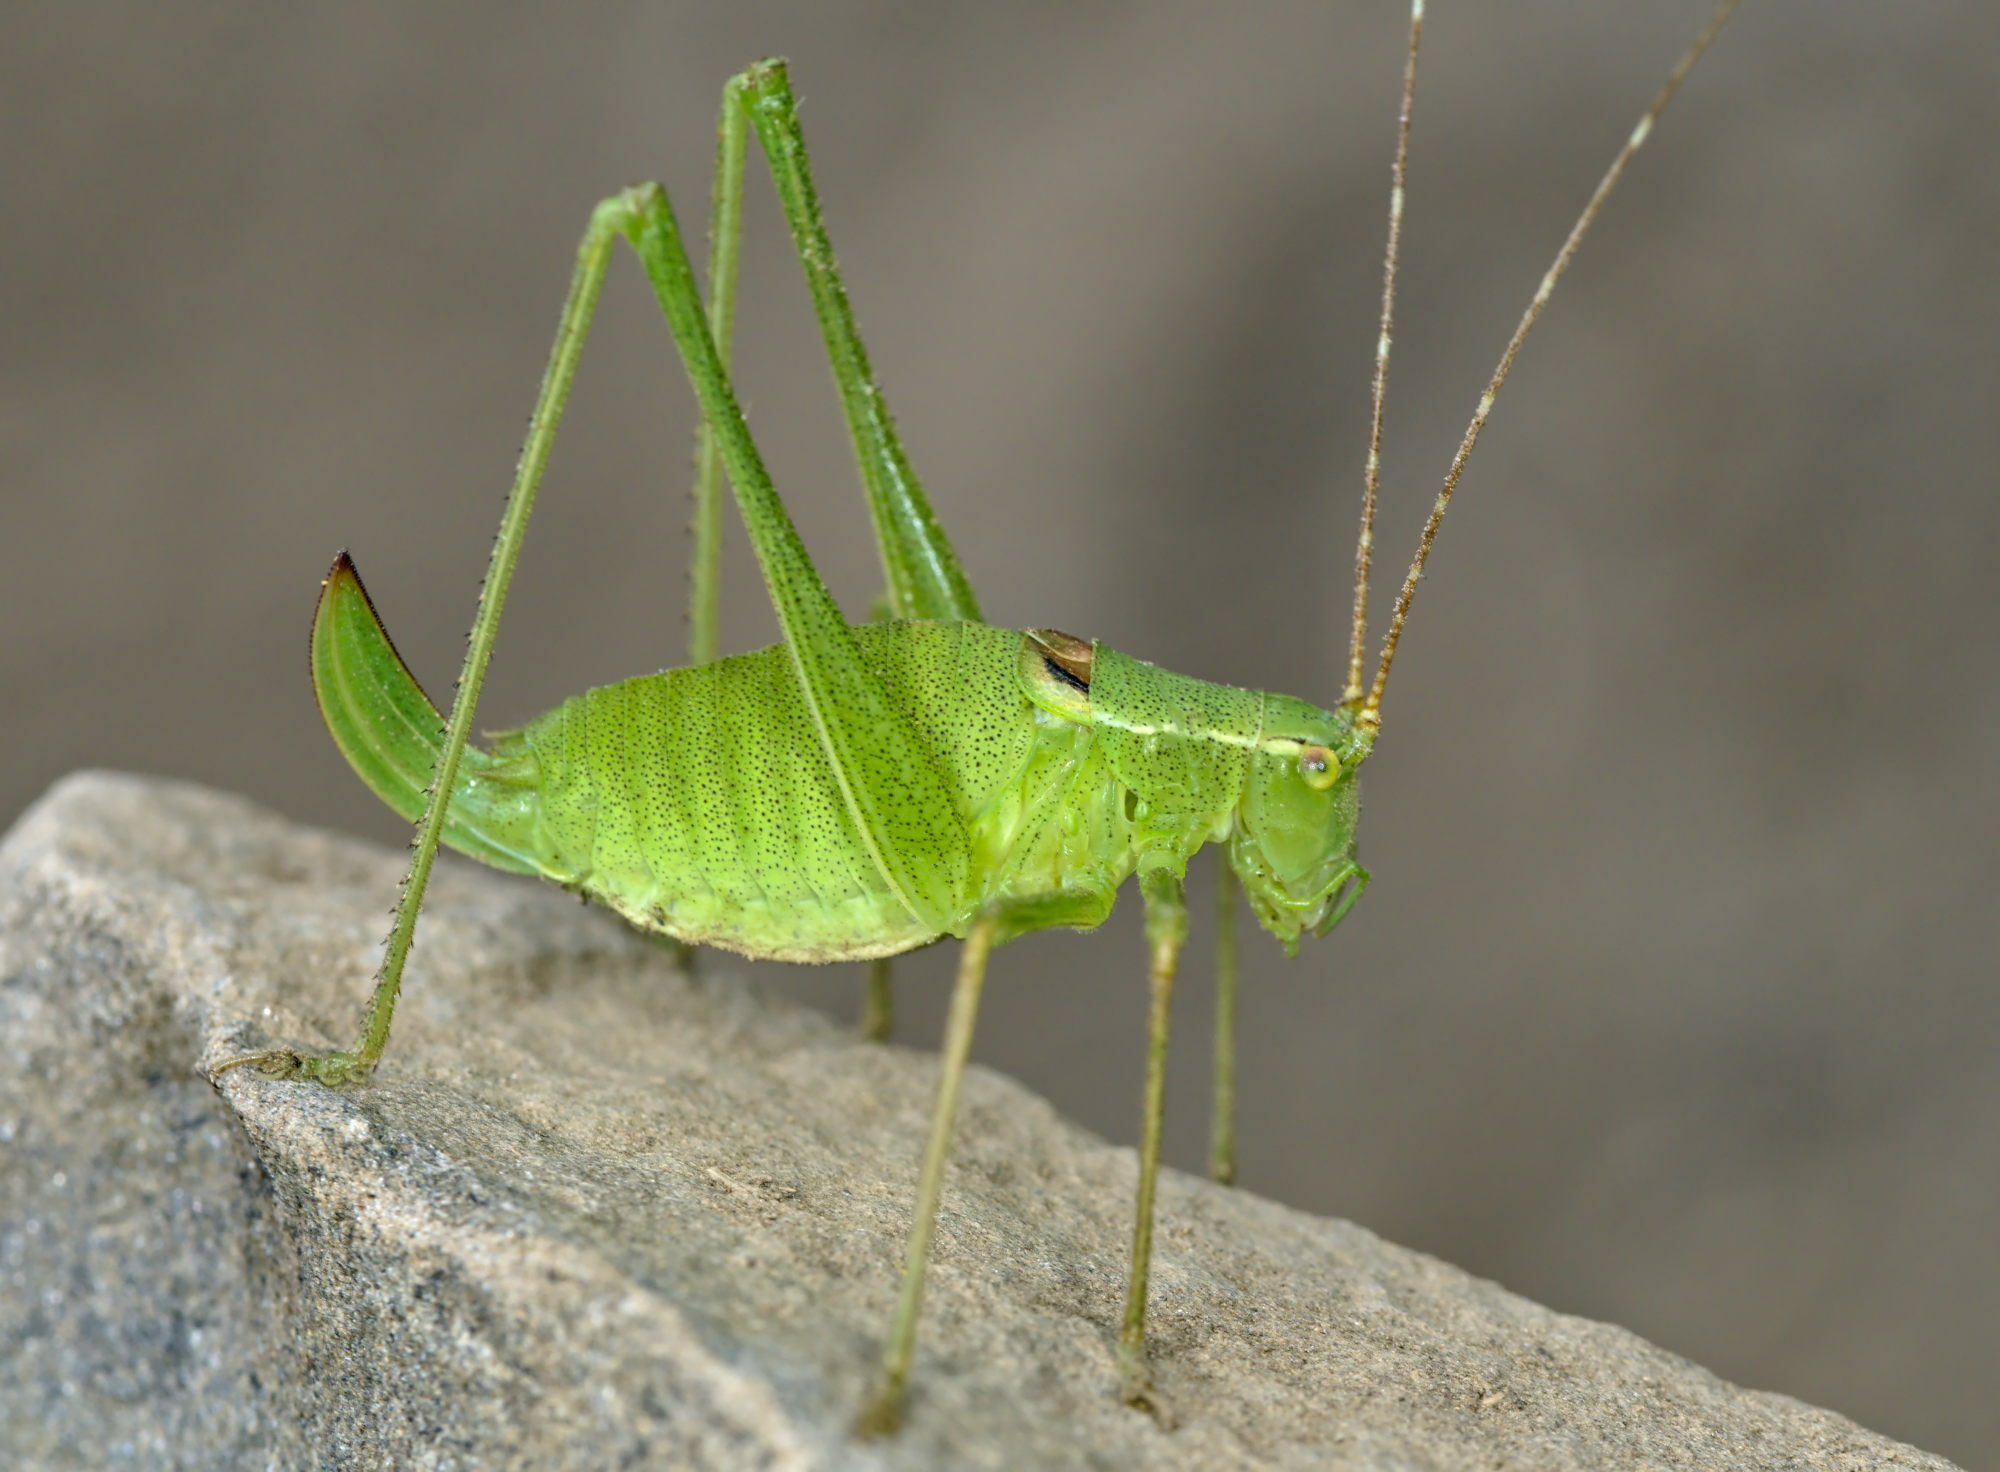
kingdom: Animalia
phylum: Arthropoda
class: Insecta
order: Orthoptera
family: Tettigoniidae
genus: Leptophyes
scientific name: Leptophyes laticauda
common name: Long-tailed speckled bush-cricket
